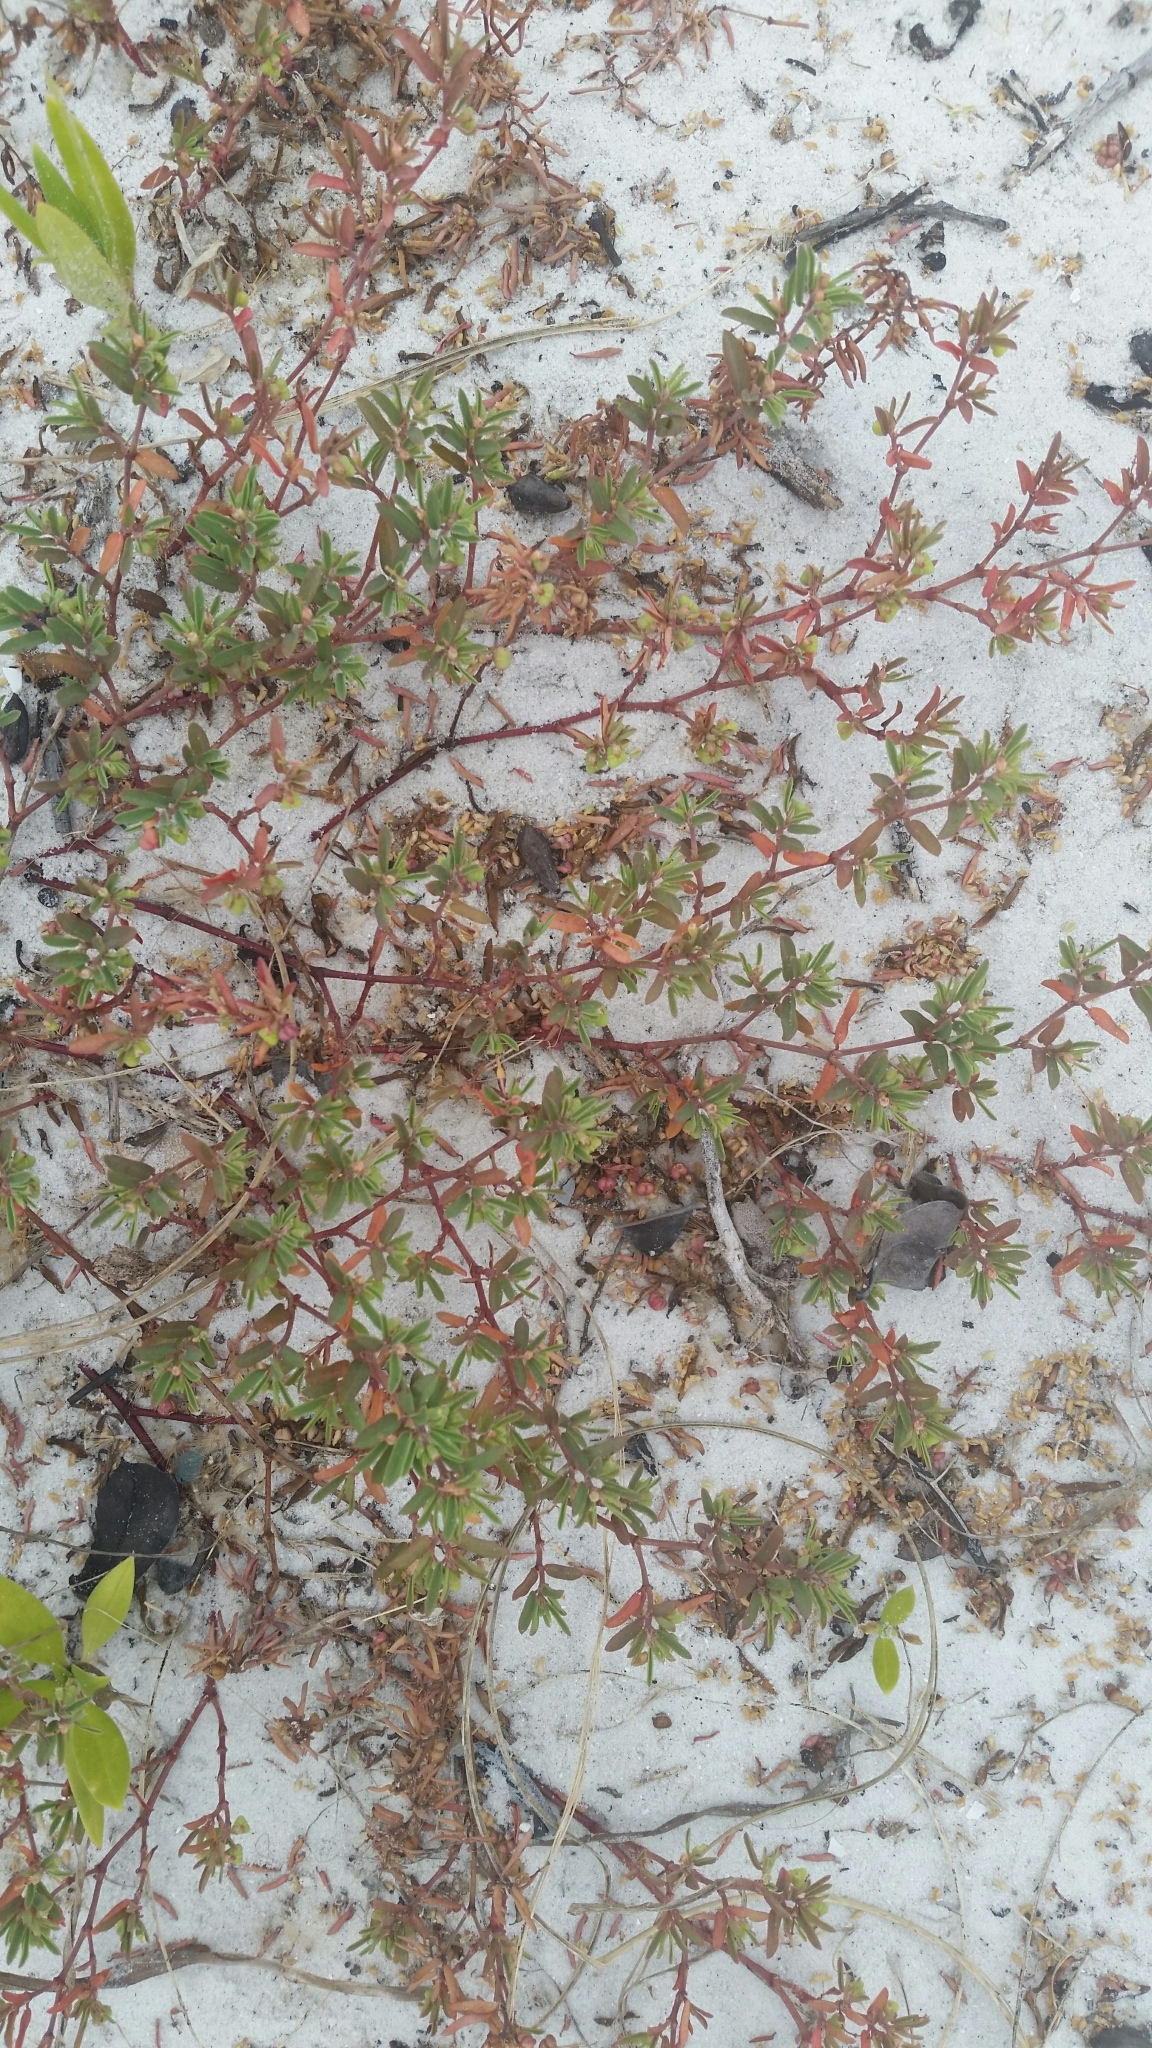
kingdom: Plantae
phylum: Tracheophyta
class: Magnoliopsida
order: Malpighiales
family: Euphorbiaceae
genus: Euphorbia
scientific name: Euphorbia bombensis
